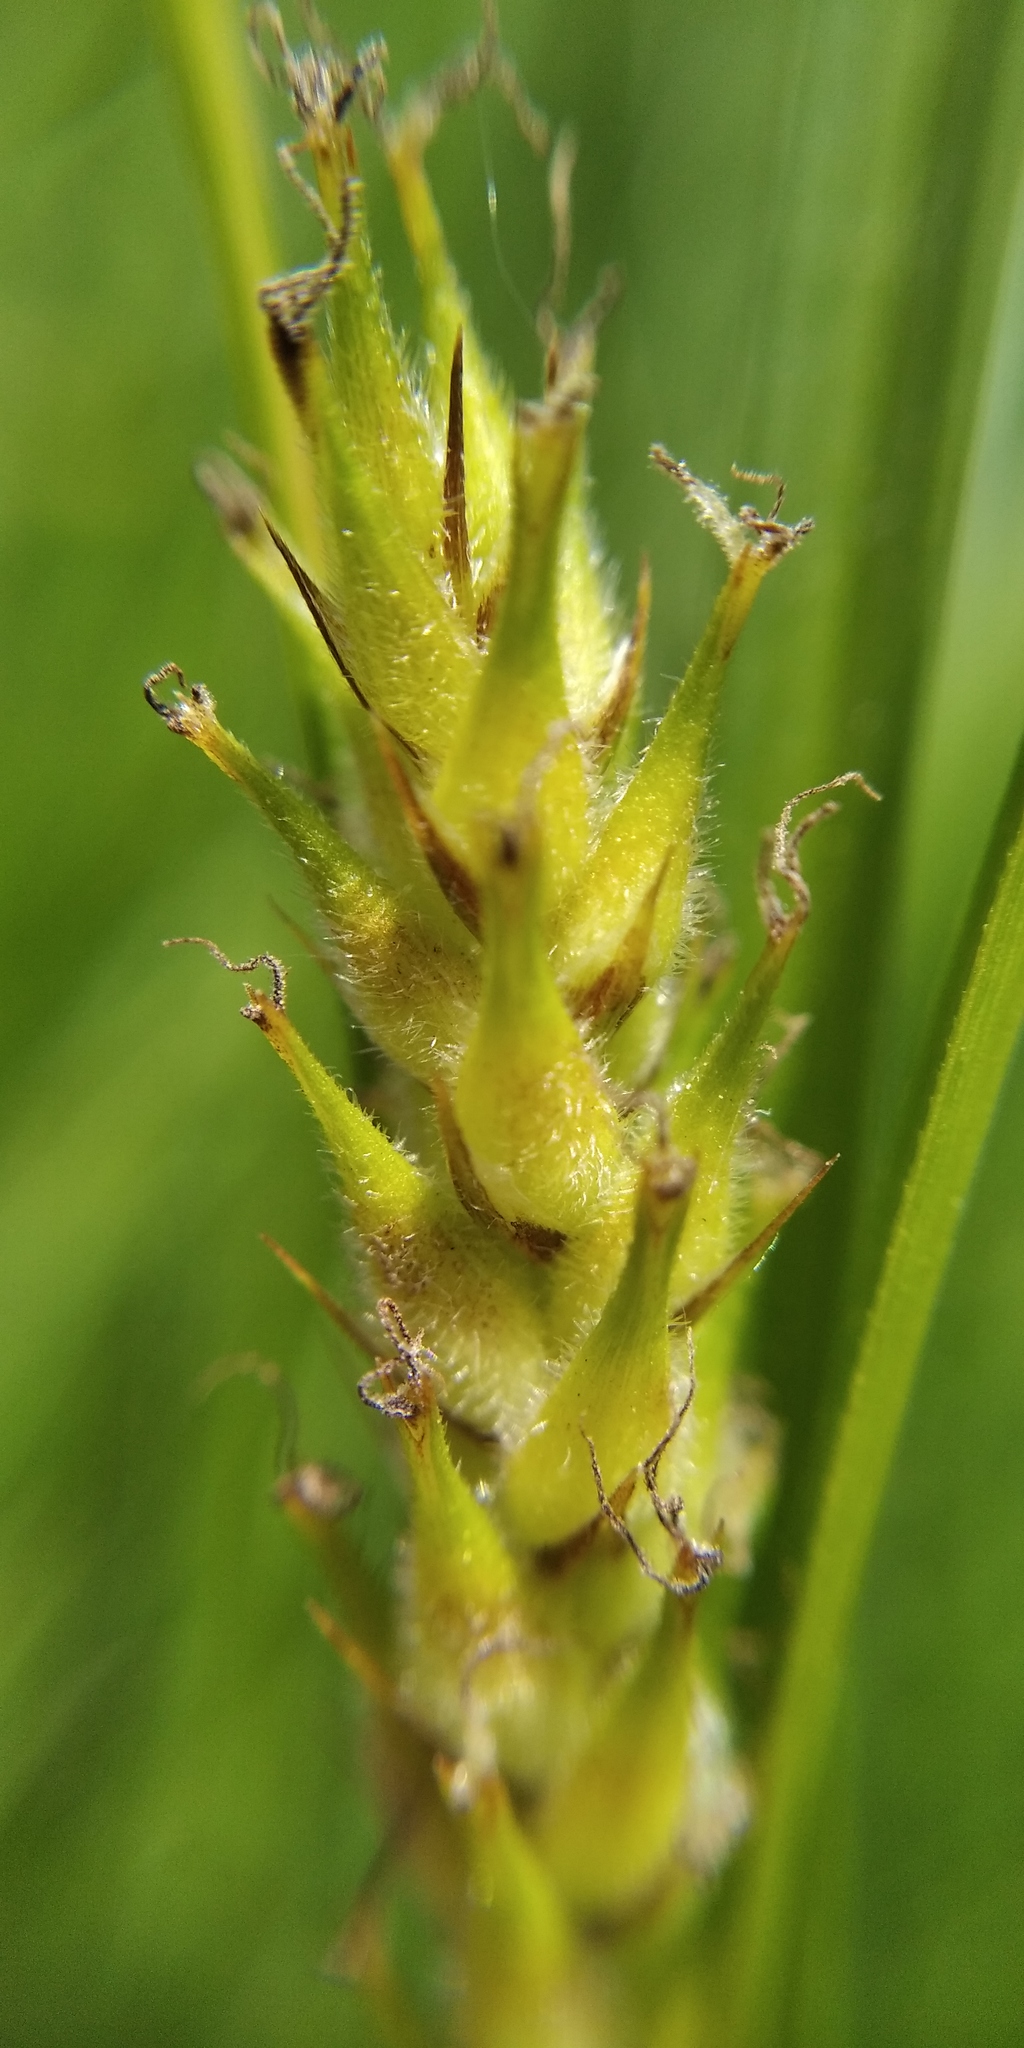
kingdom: Plantae
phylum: Tracheophyta
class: Liliopsida
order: Poales
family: Cyperaceae
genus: Carex
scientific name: Carex hirta
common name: Hairy sedge
